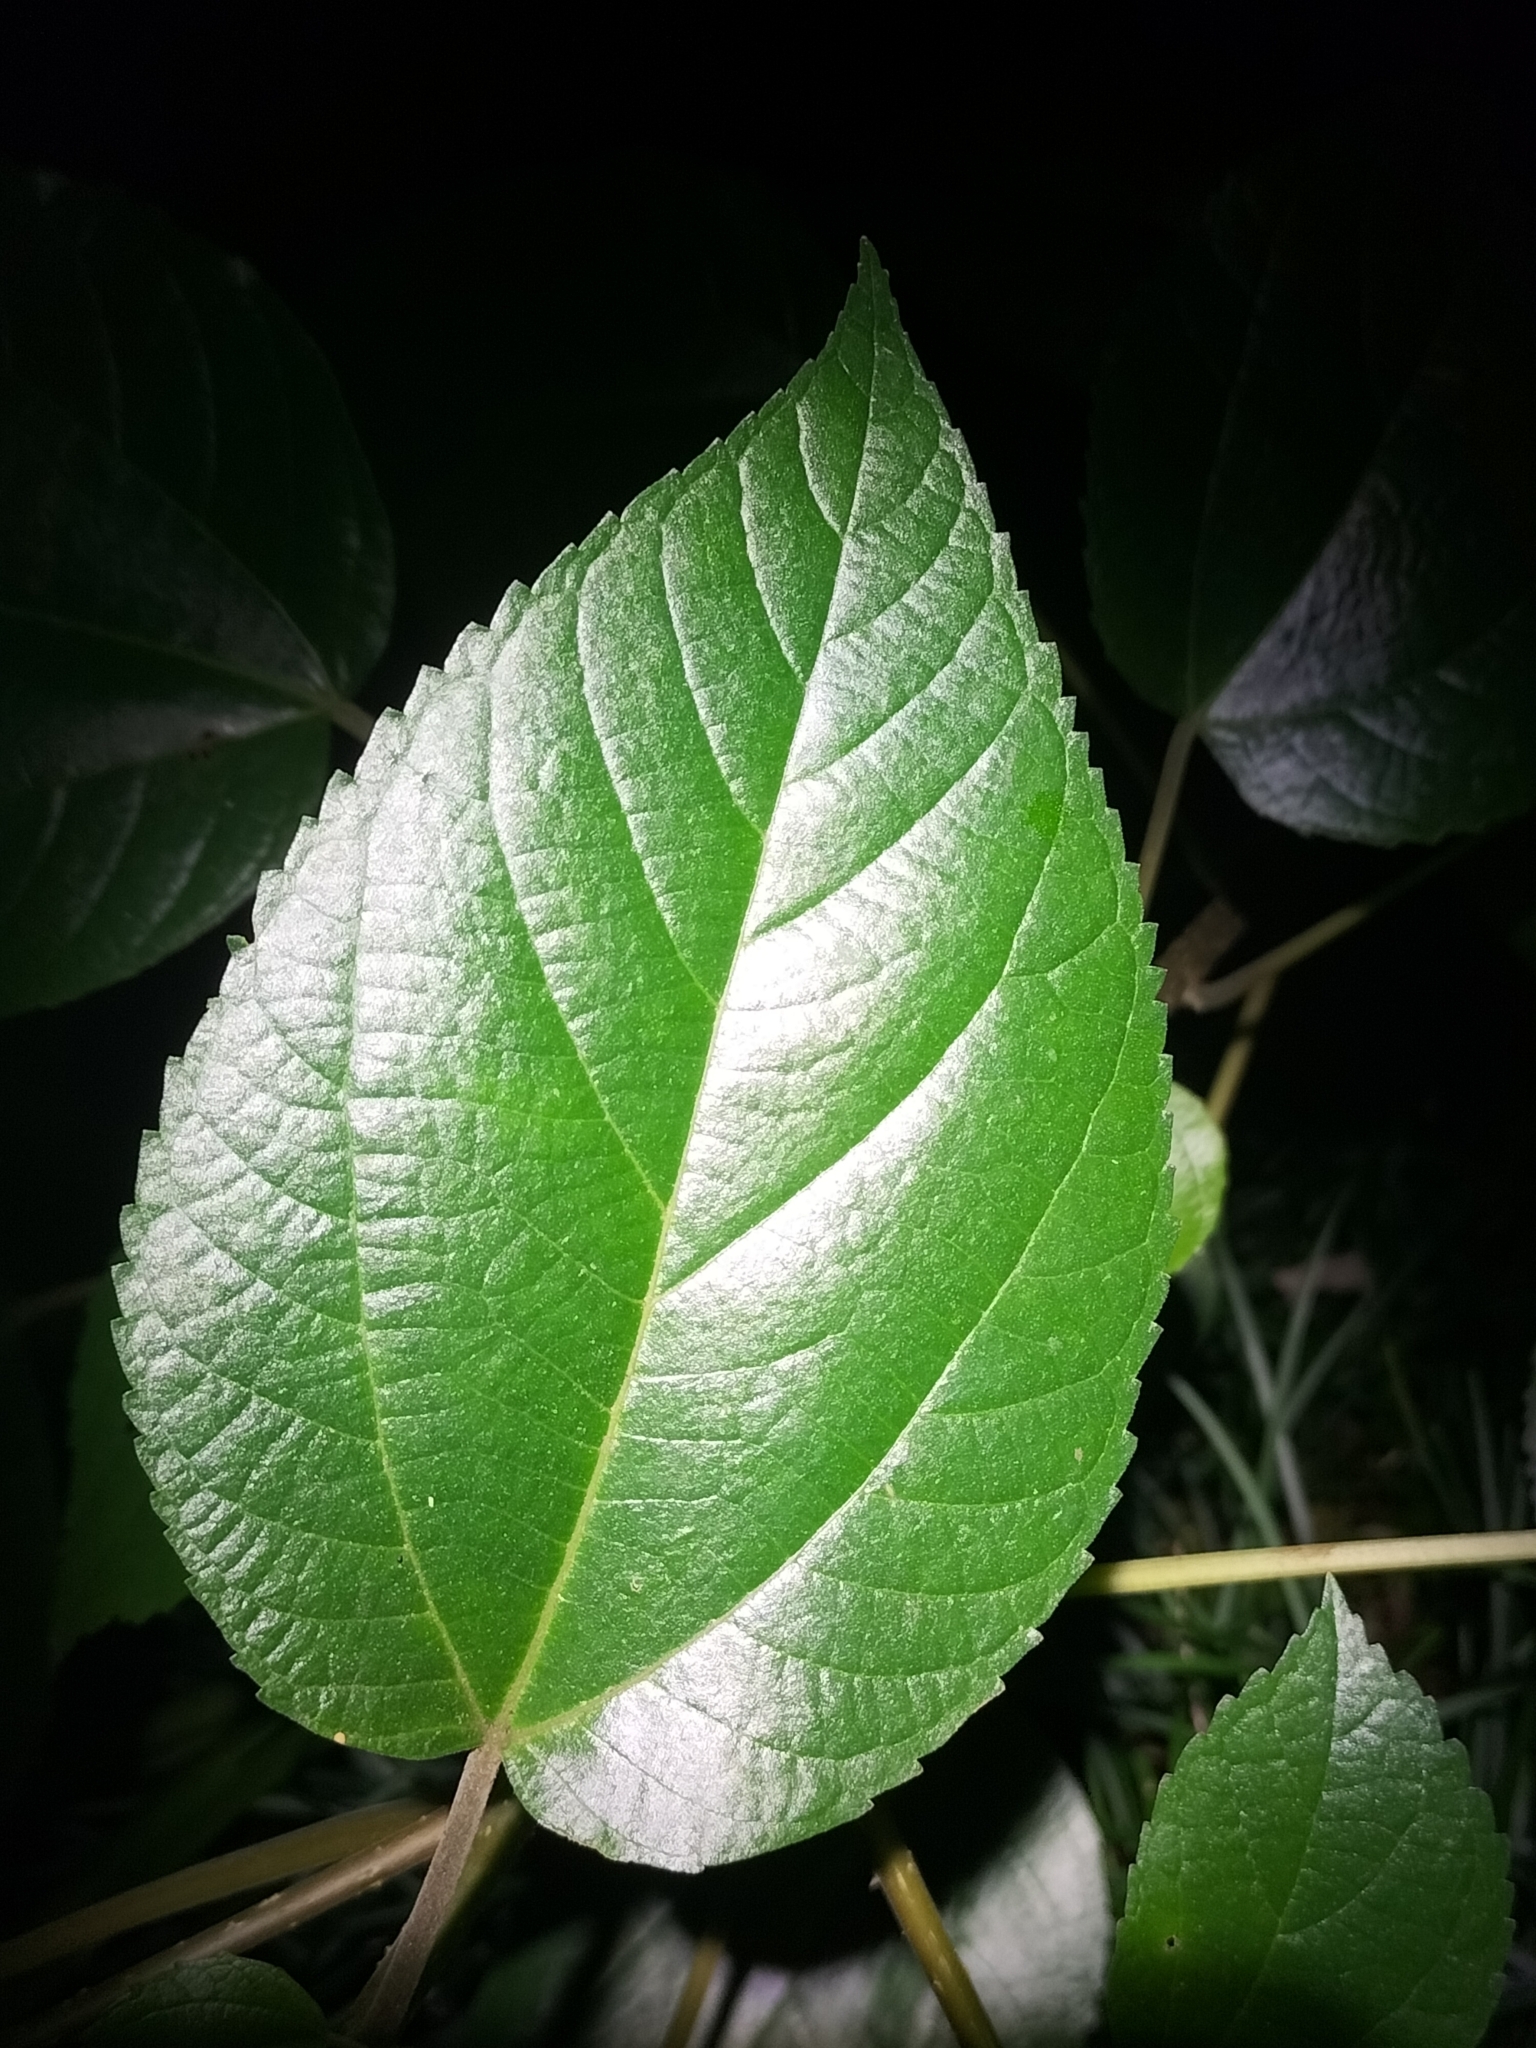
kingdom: Plantae
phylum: Tracheophyta
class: Magnoliopsida
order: Rosales
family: Urticaceae
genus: Pipturus
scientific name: Pipturus argenteus
